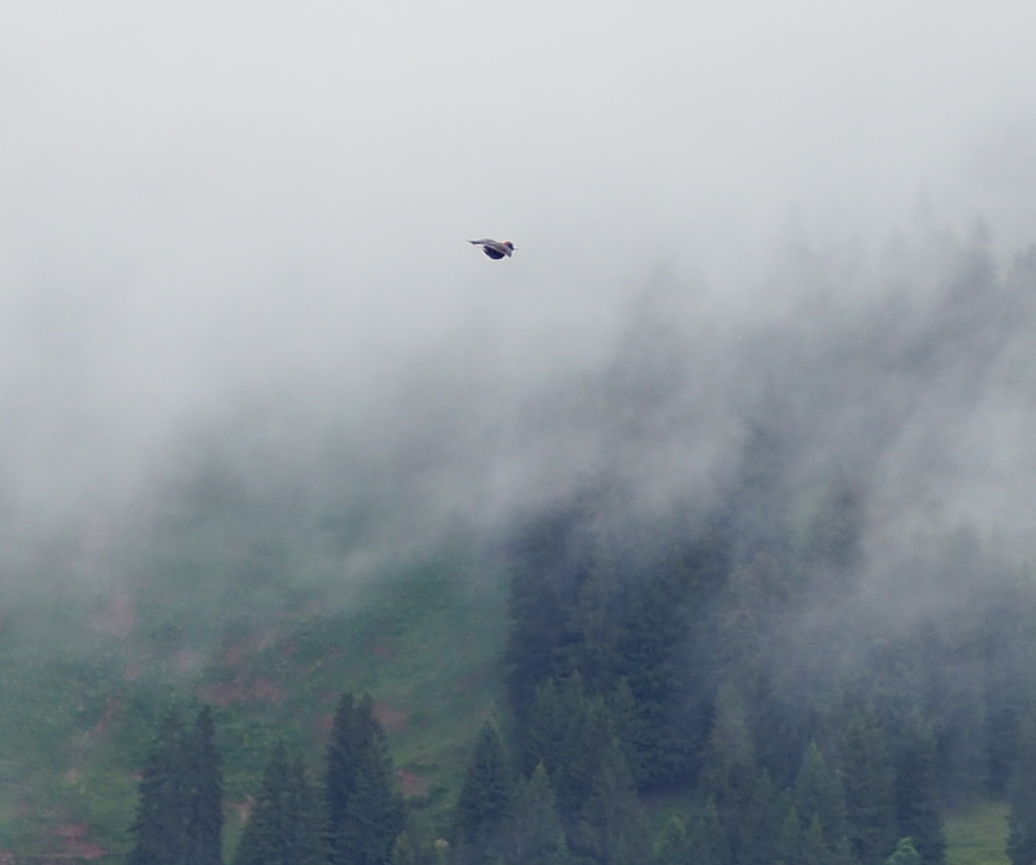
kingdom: Animalia
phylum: Chordata
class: Aves
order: Piciformes
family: Picidae
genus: Dryocopus
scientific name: Dryocopus martius
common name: Black woodpecker
